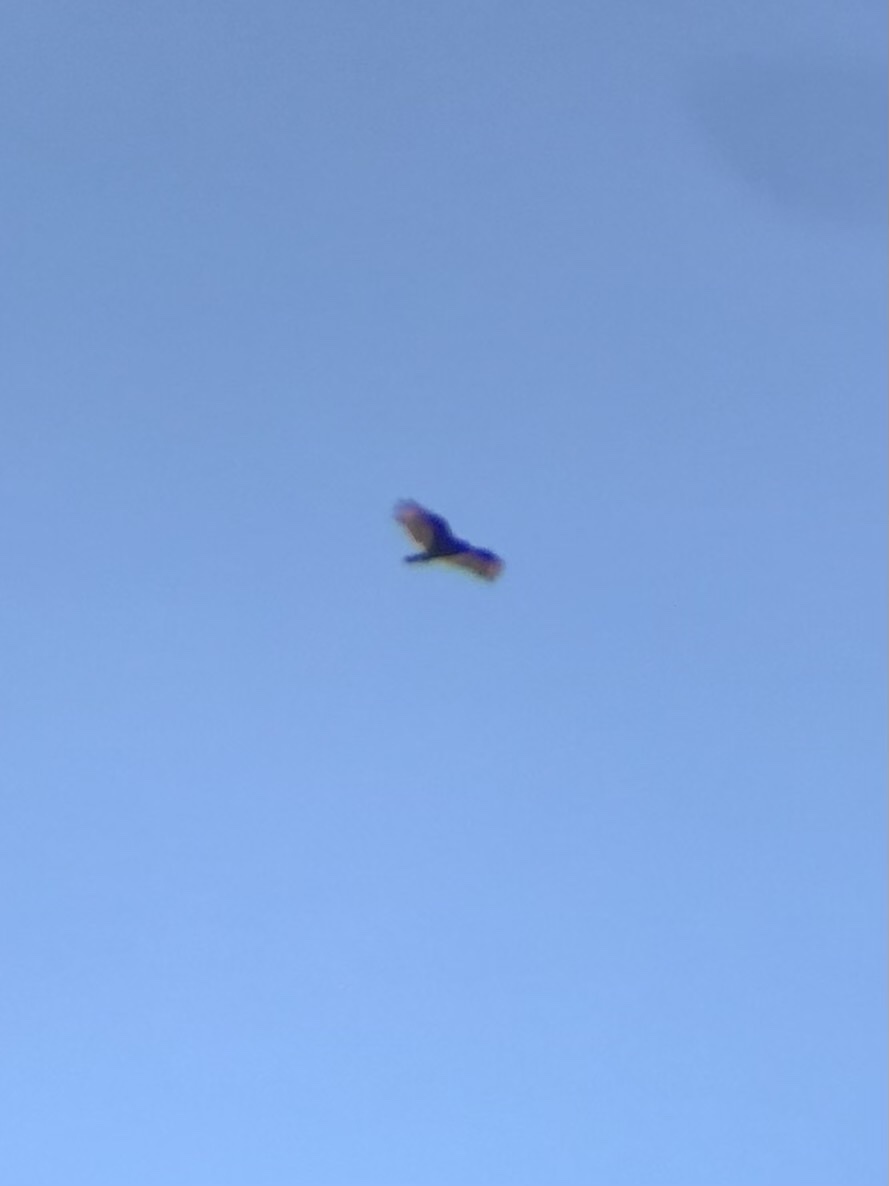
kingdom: Animalia
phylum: Chordata
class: Aves
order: Accipitriformes
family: Cathartidae
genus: Cathartes
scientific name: Cathartes aura
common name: Turkey vulture
